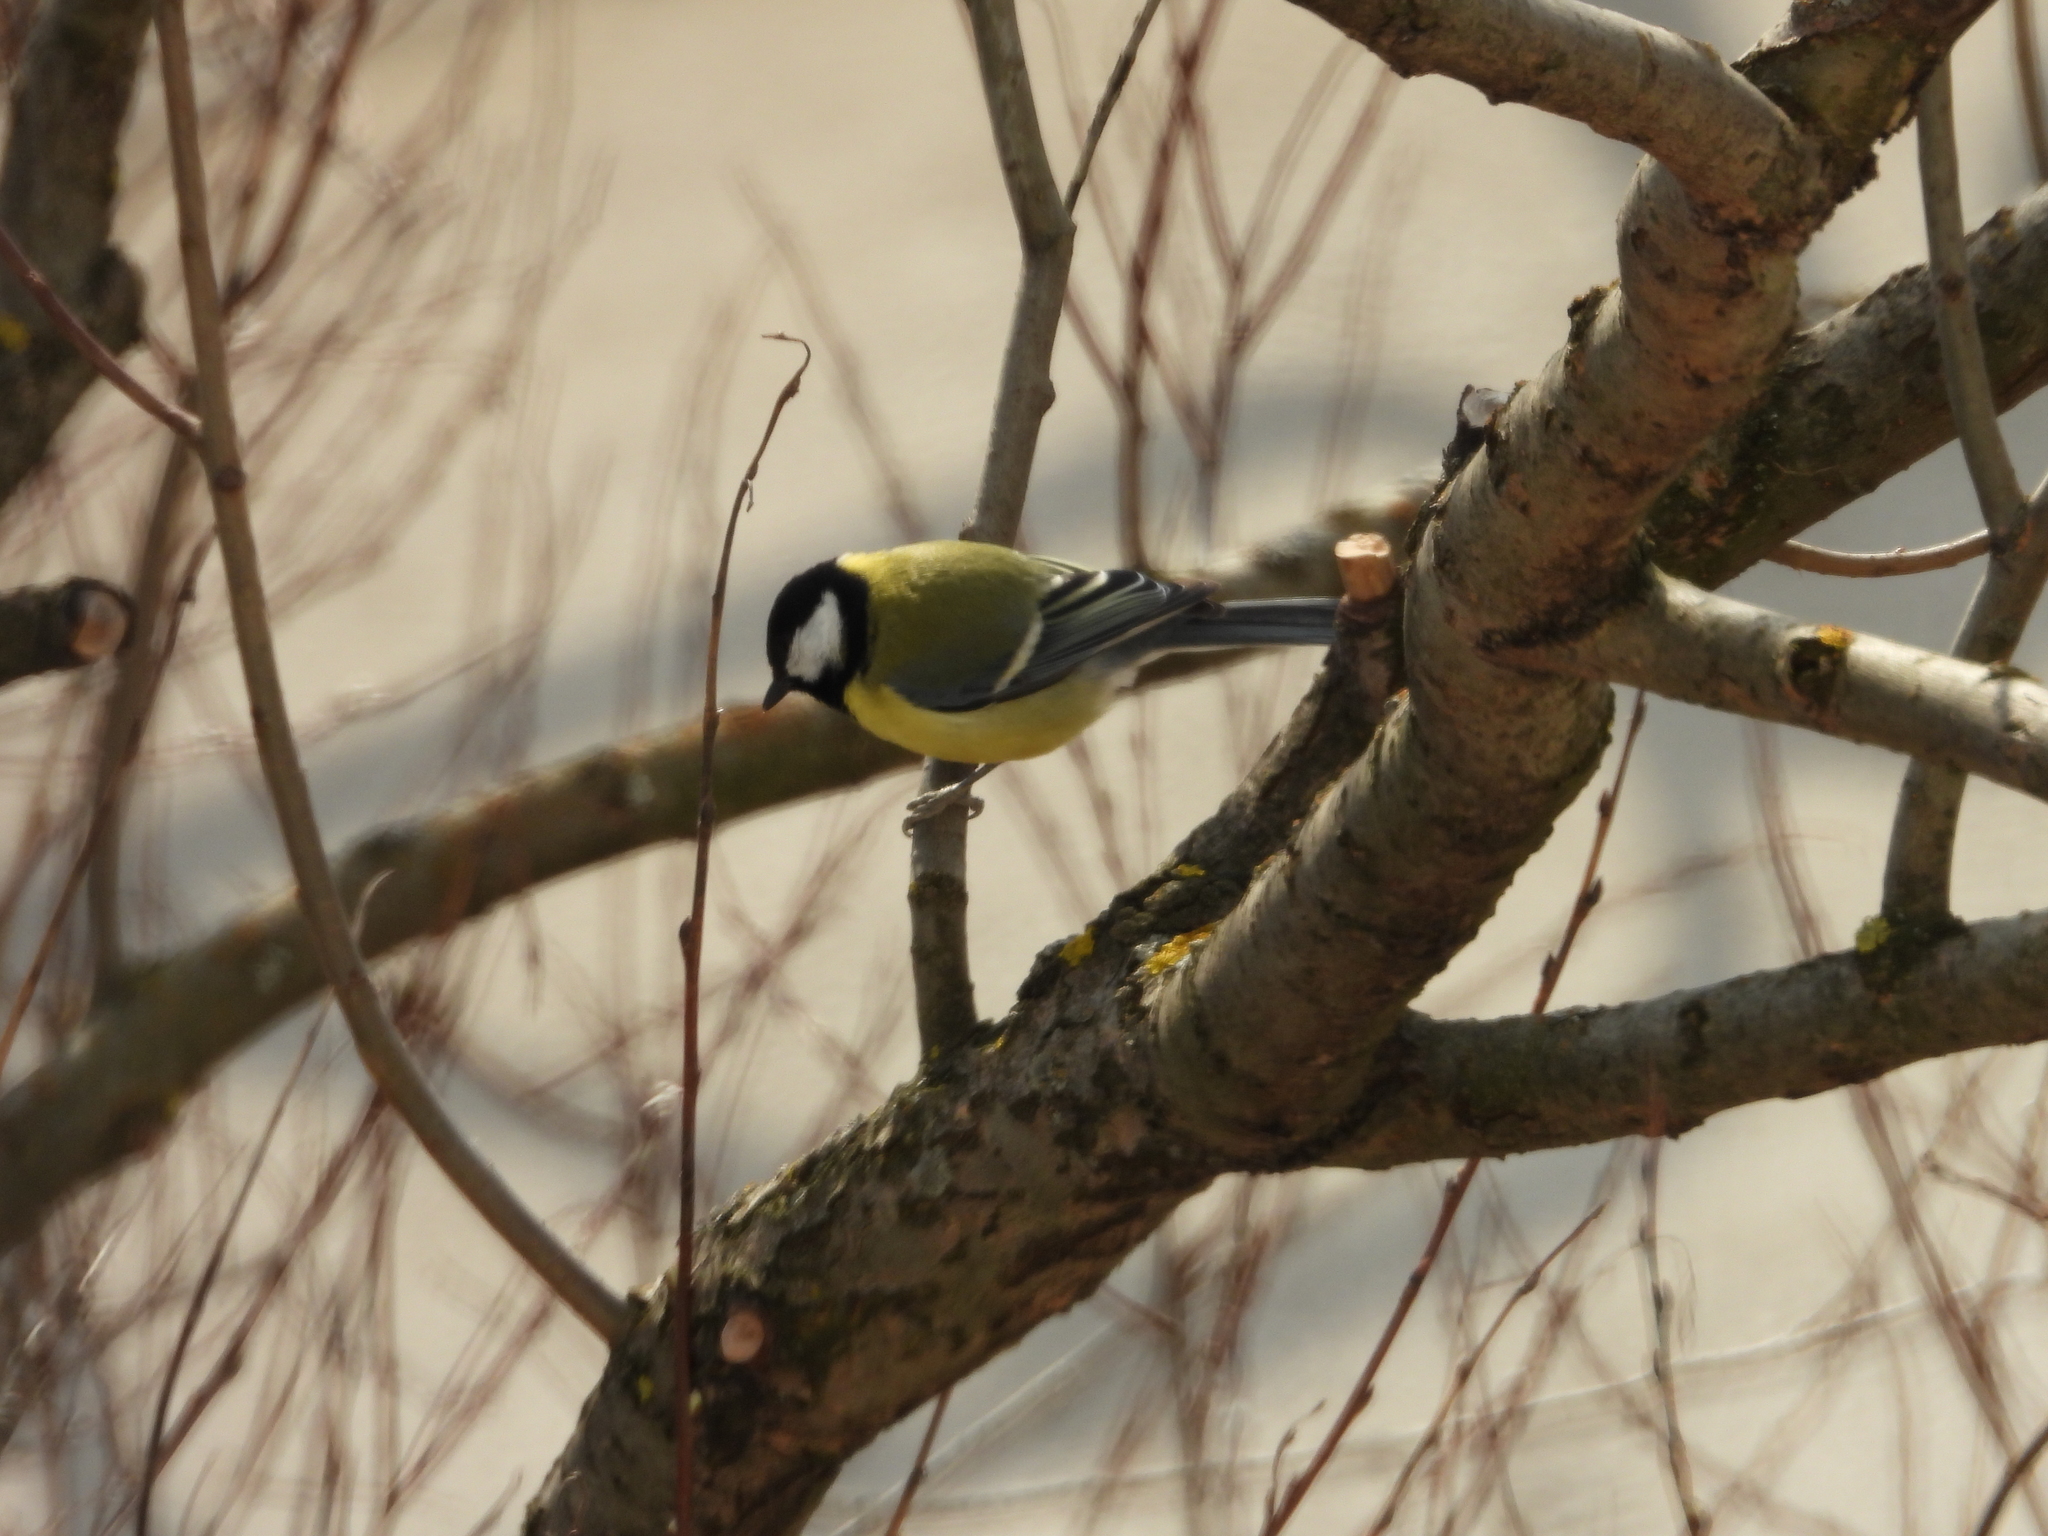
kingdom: Animalia
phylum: Chordata
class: Aves
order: Passeriformes
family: Paridae
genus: Parus
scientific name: Parus major
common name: Great tit
